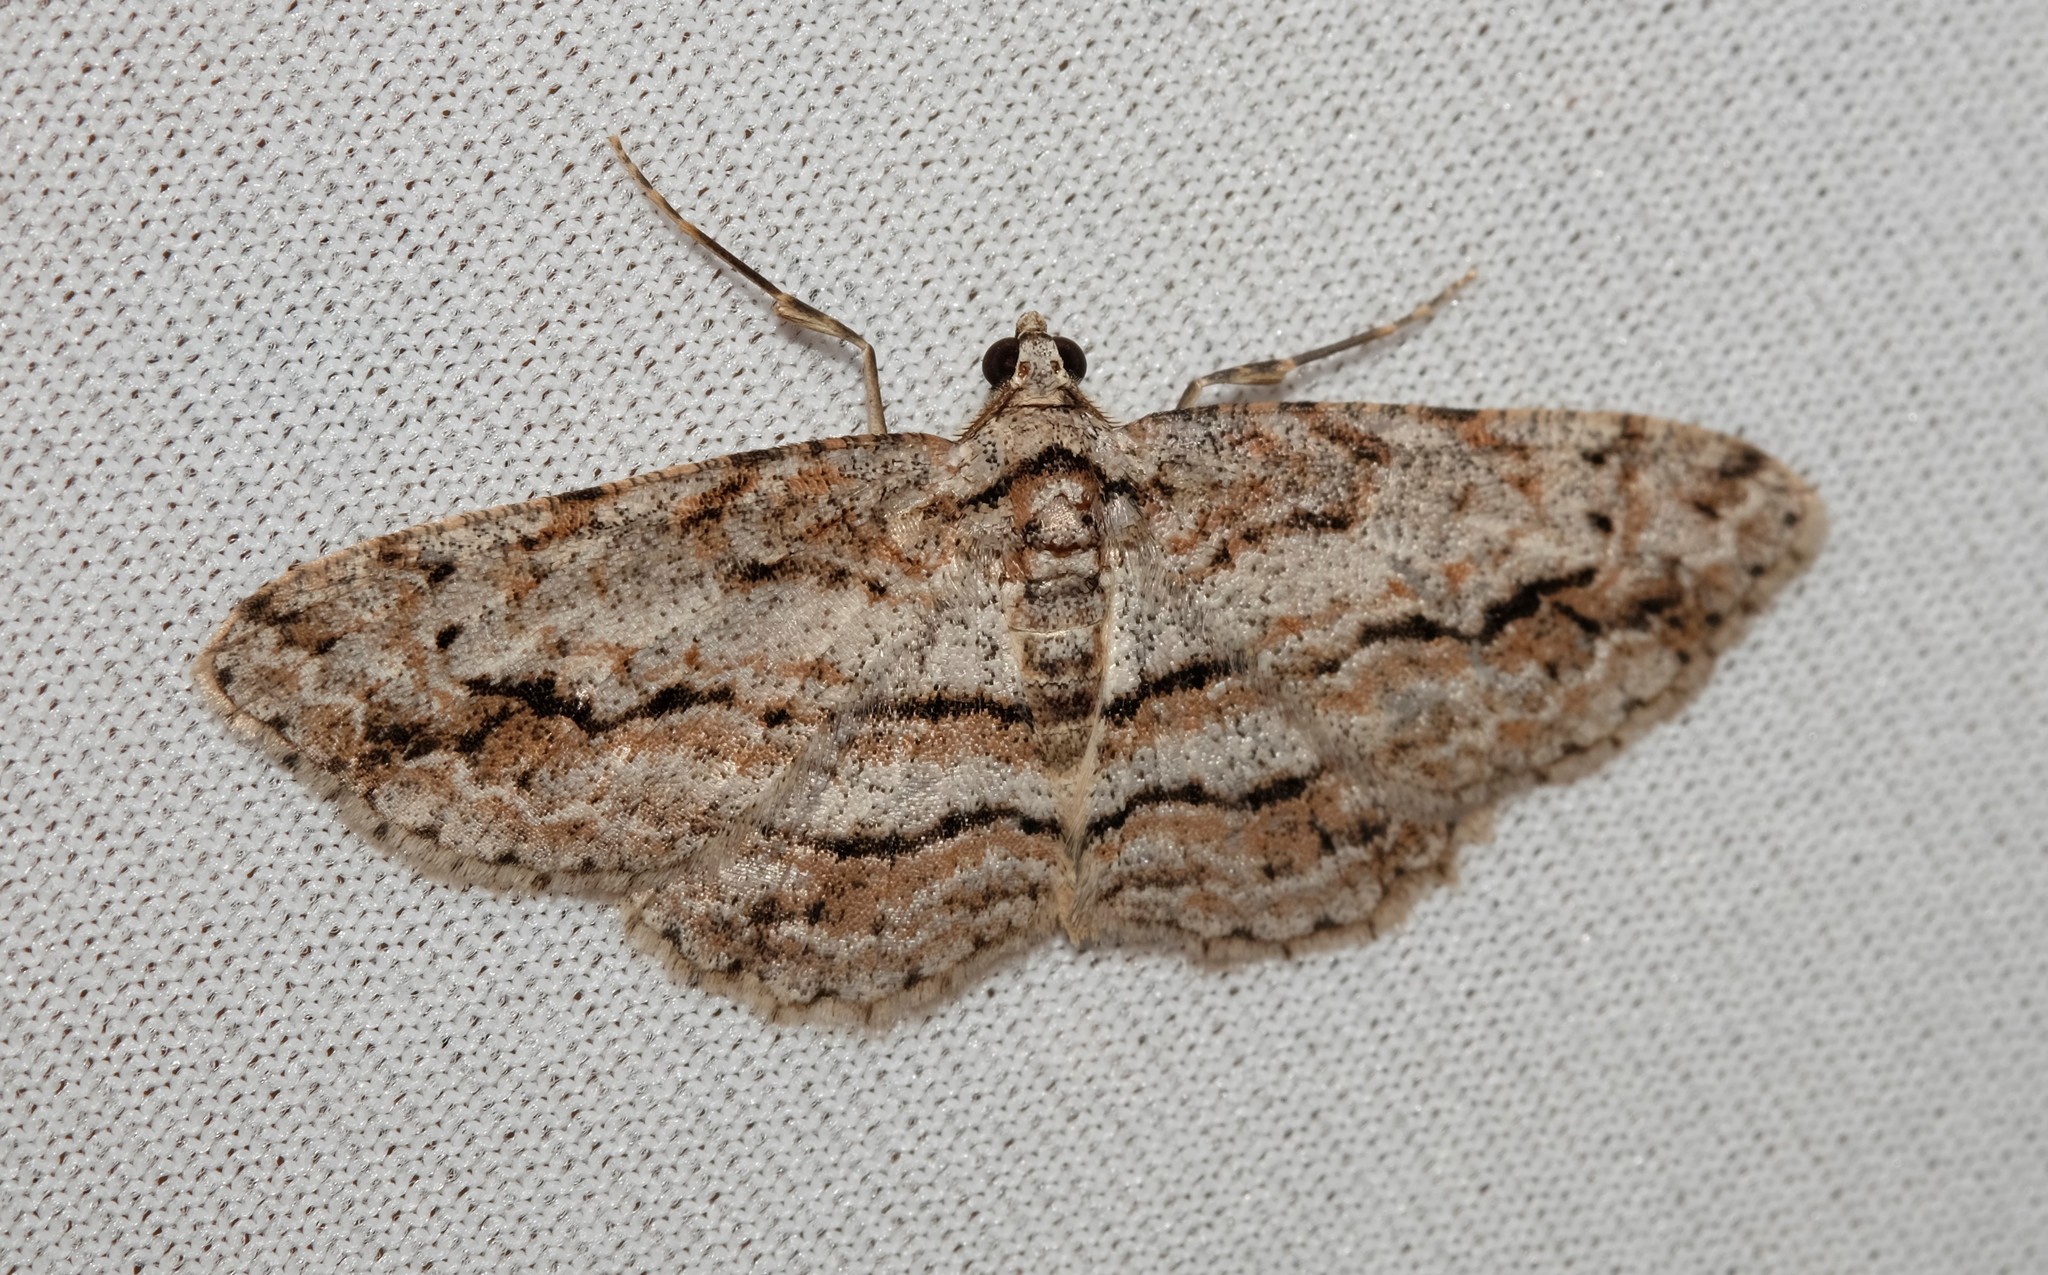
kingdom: Animalia
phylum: Arthropoda
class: Insecta
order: Lepidoptera
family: Geometridae
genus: Didymoctenia
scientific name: Didymoctenia exsuperata
